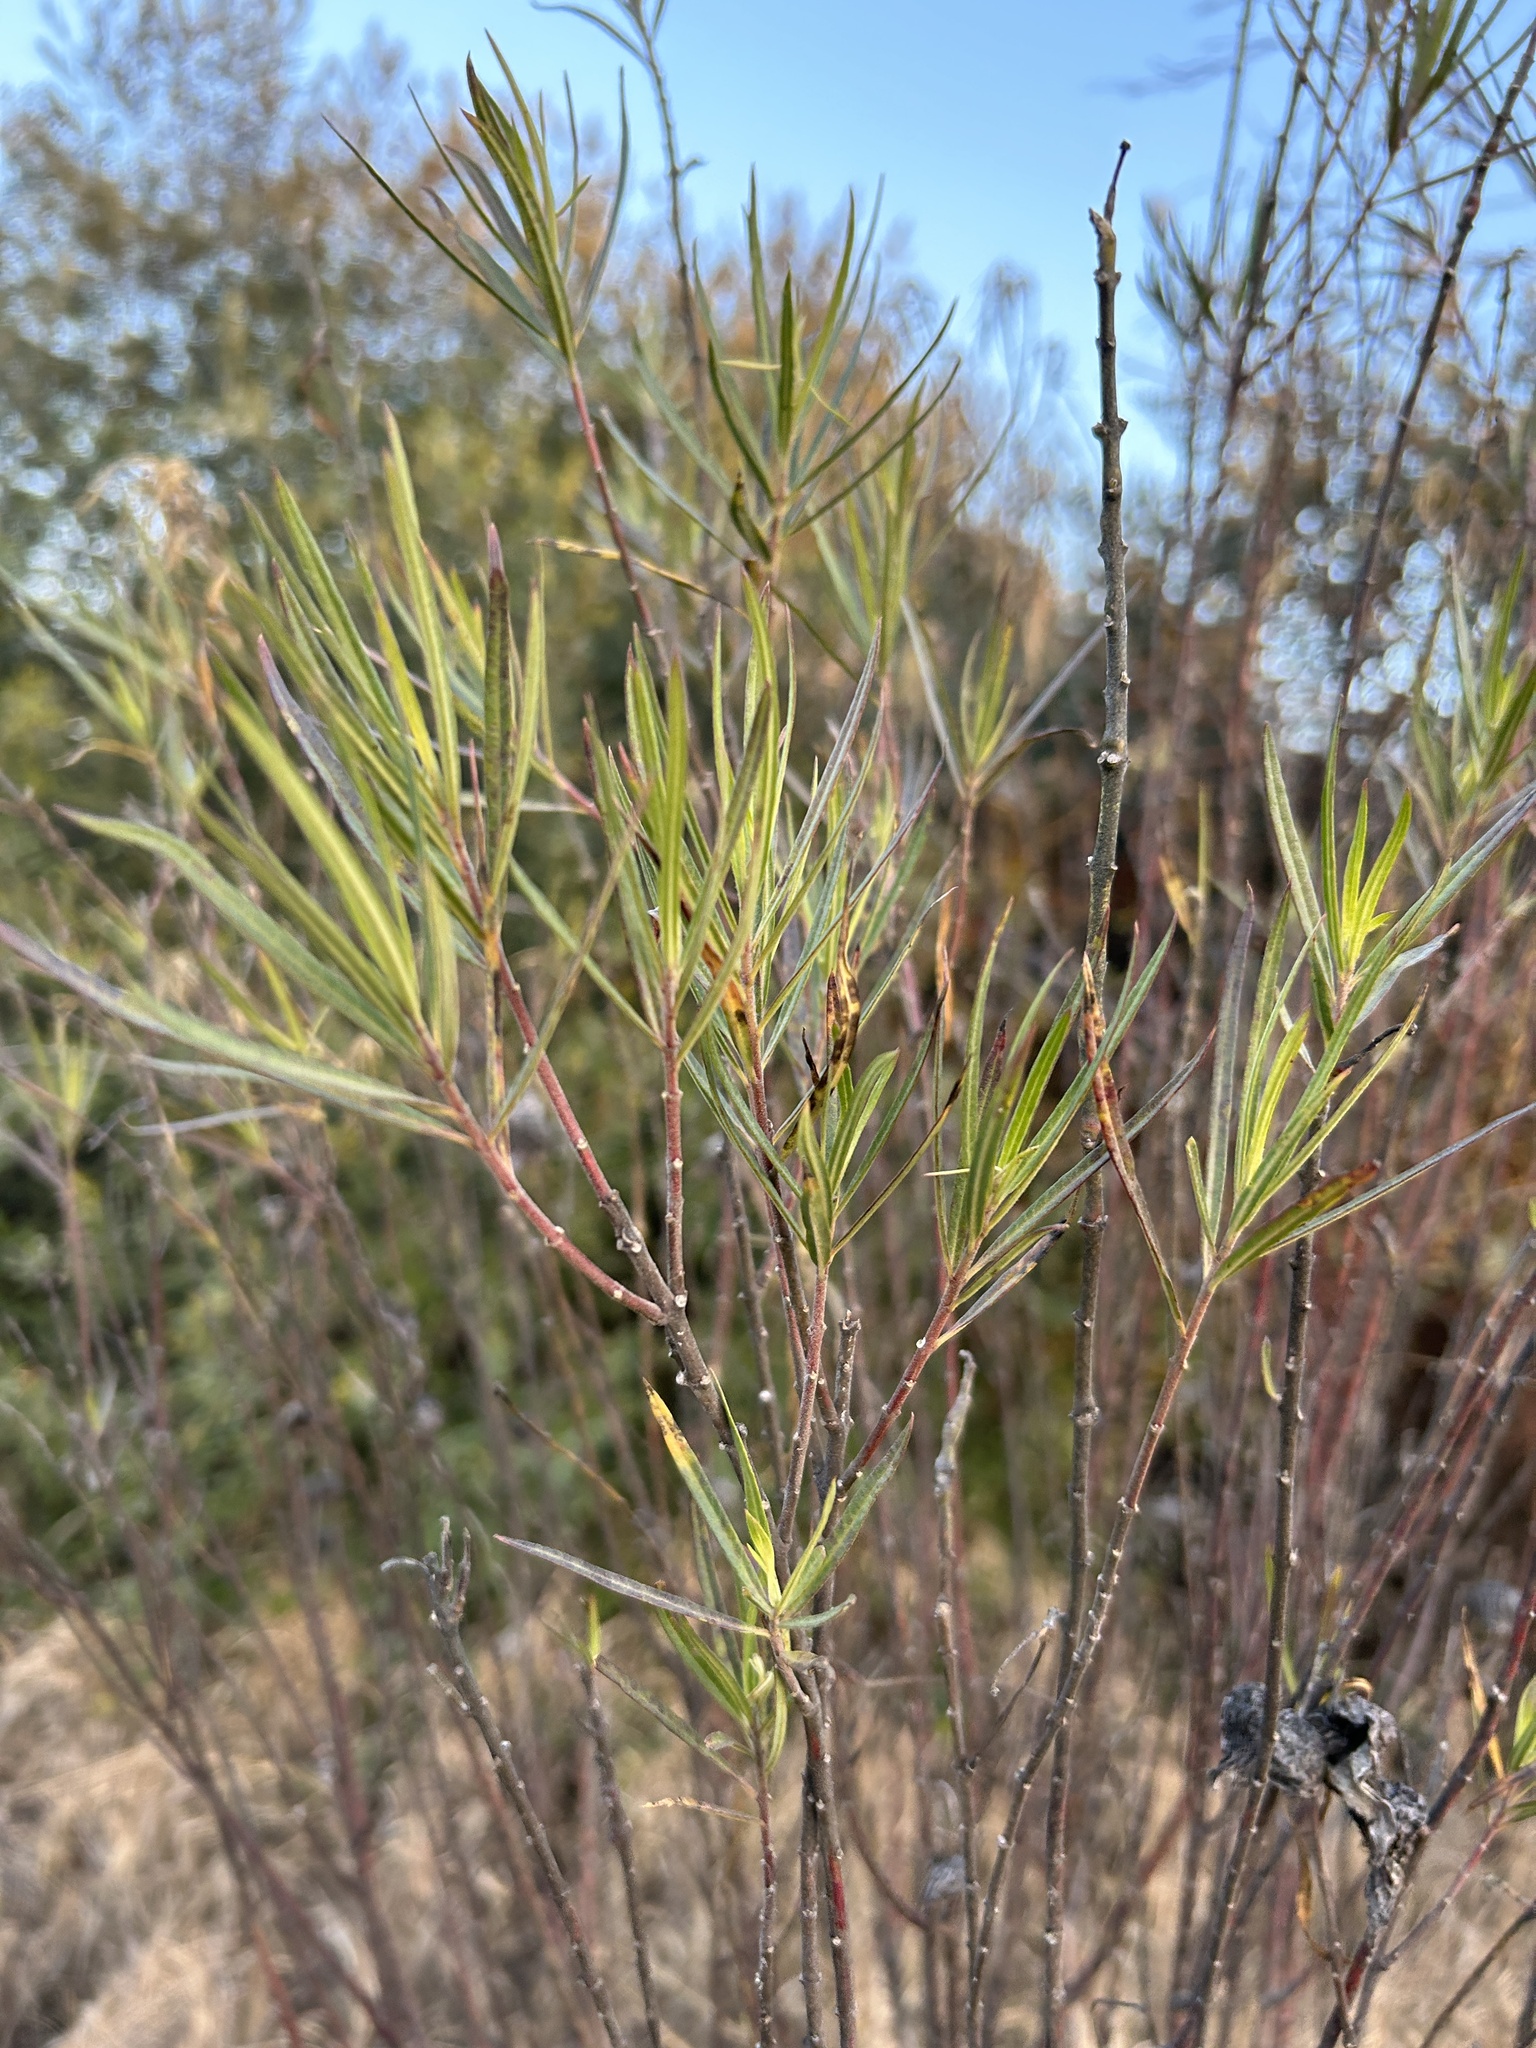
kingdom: Plantae
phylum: Tracheophyta
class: Magnoliopsida
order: Gentianales
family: Apocynaceae
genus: Gomphocarpus
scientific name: Gomphocarpus fruticosus
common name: Milkweed
